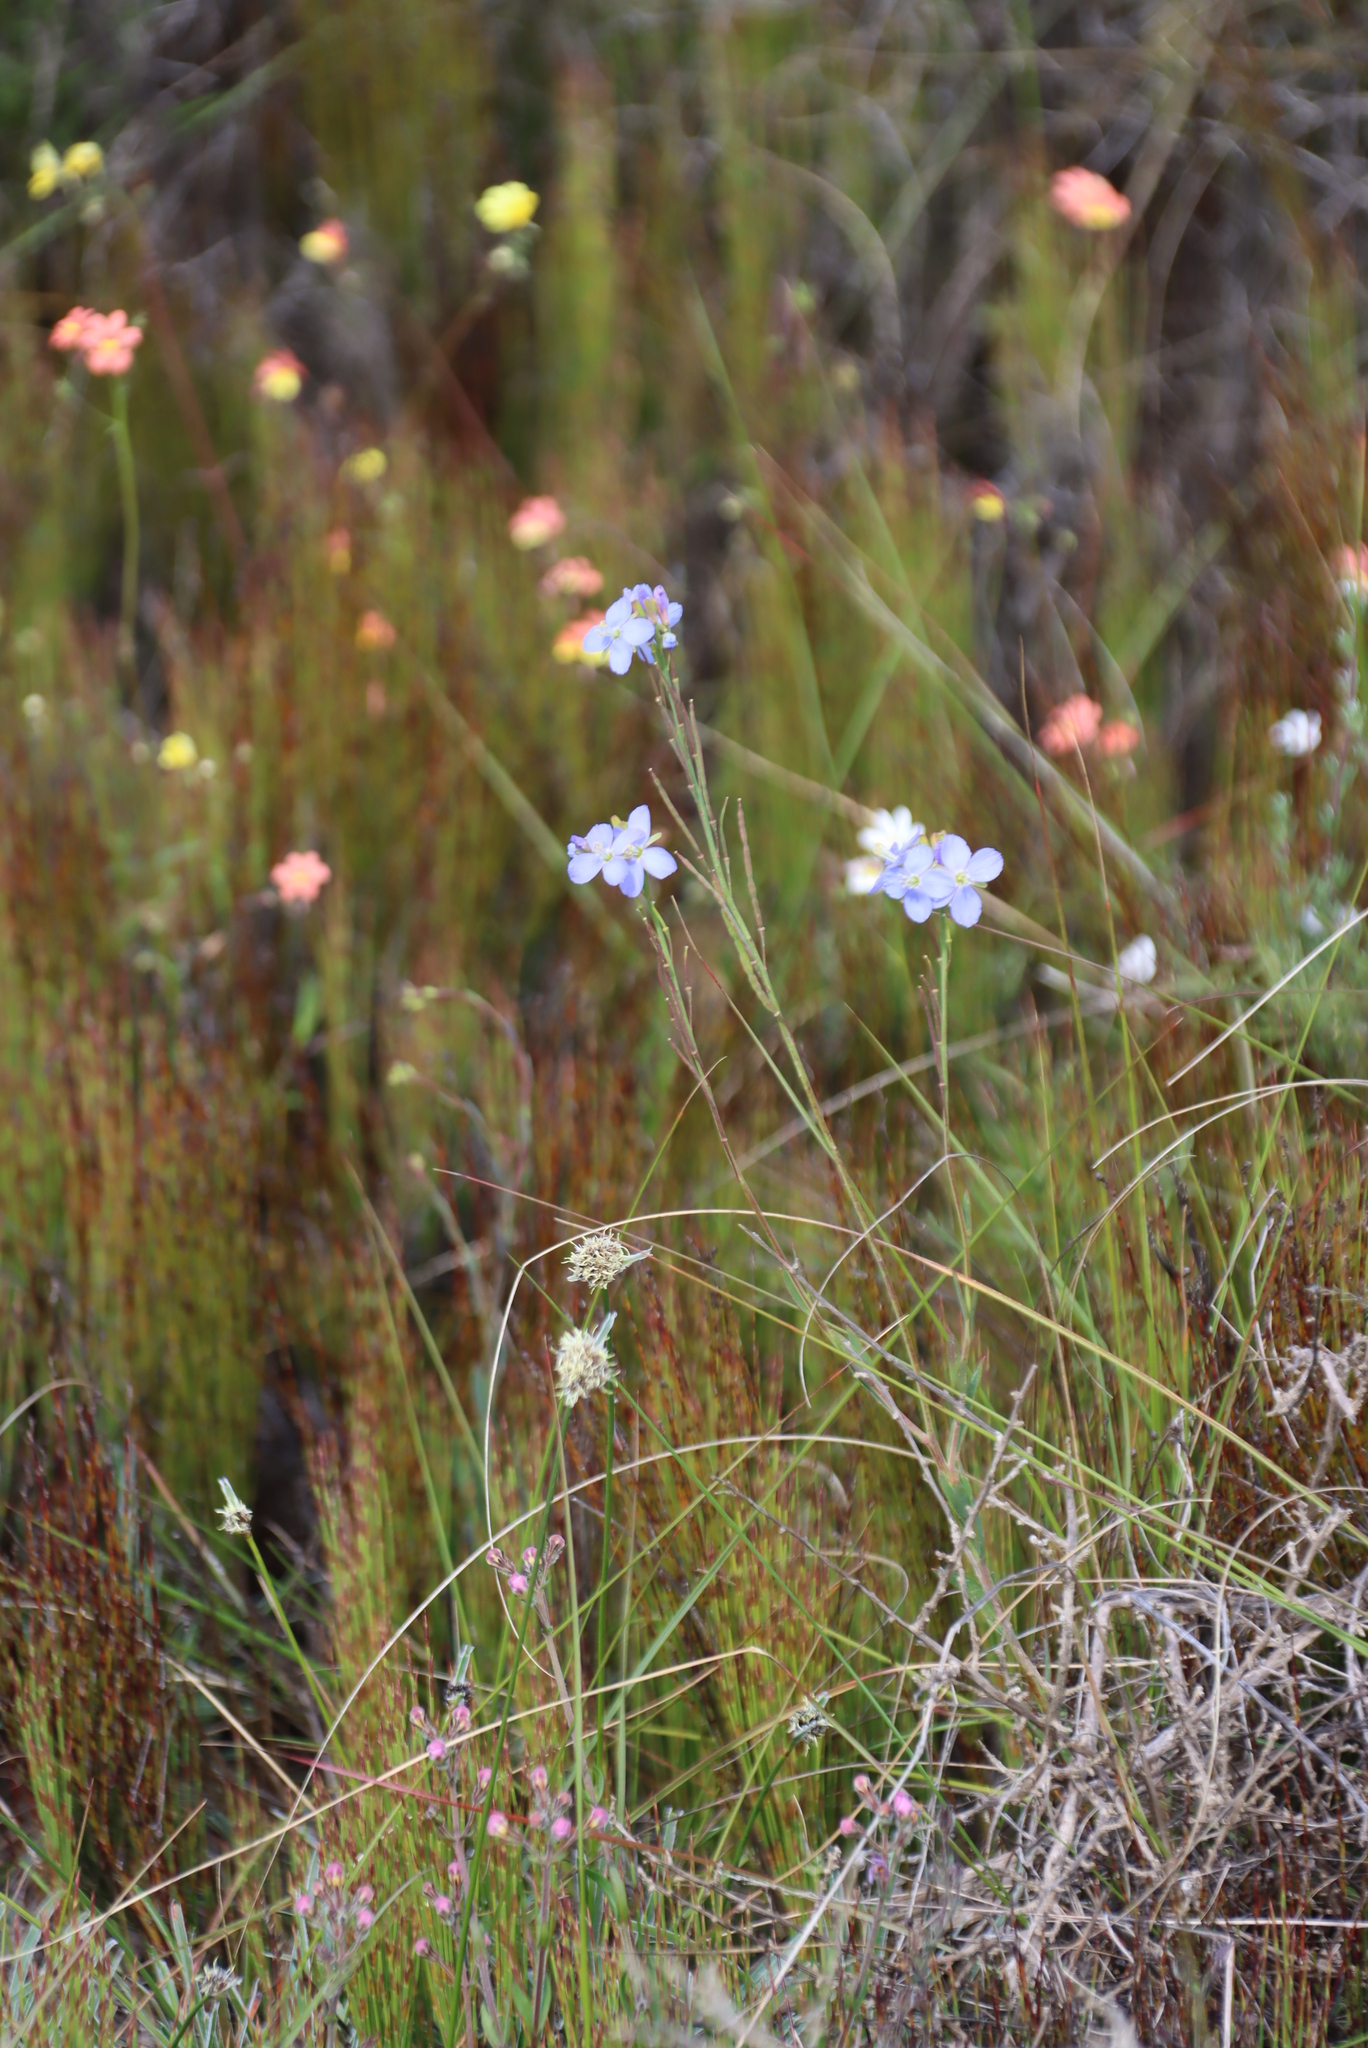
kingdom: Plantae
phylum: Tracheophyta
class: Magnoliopsida
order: Brassicales
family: Brassicaceae
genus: Heliophila
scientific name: Heliophila linearis
